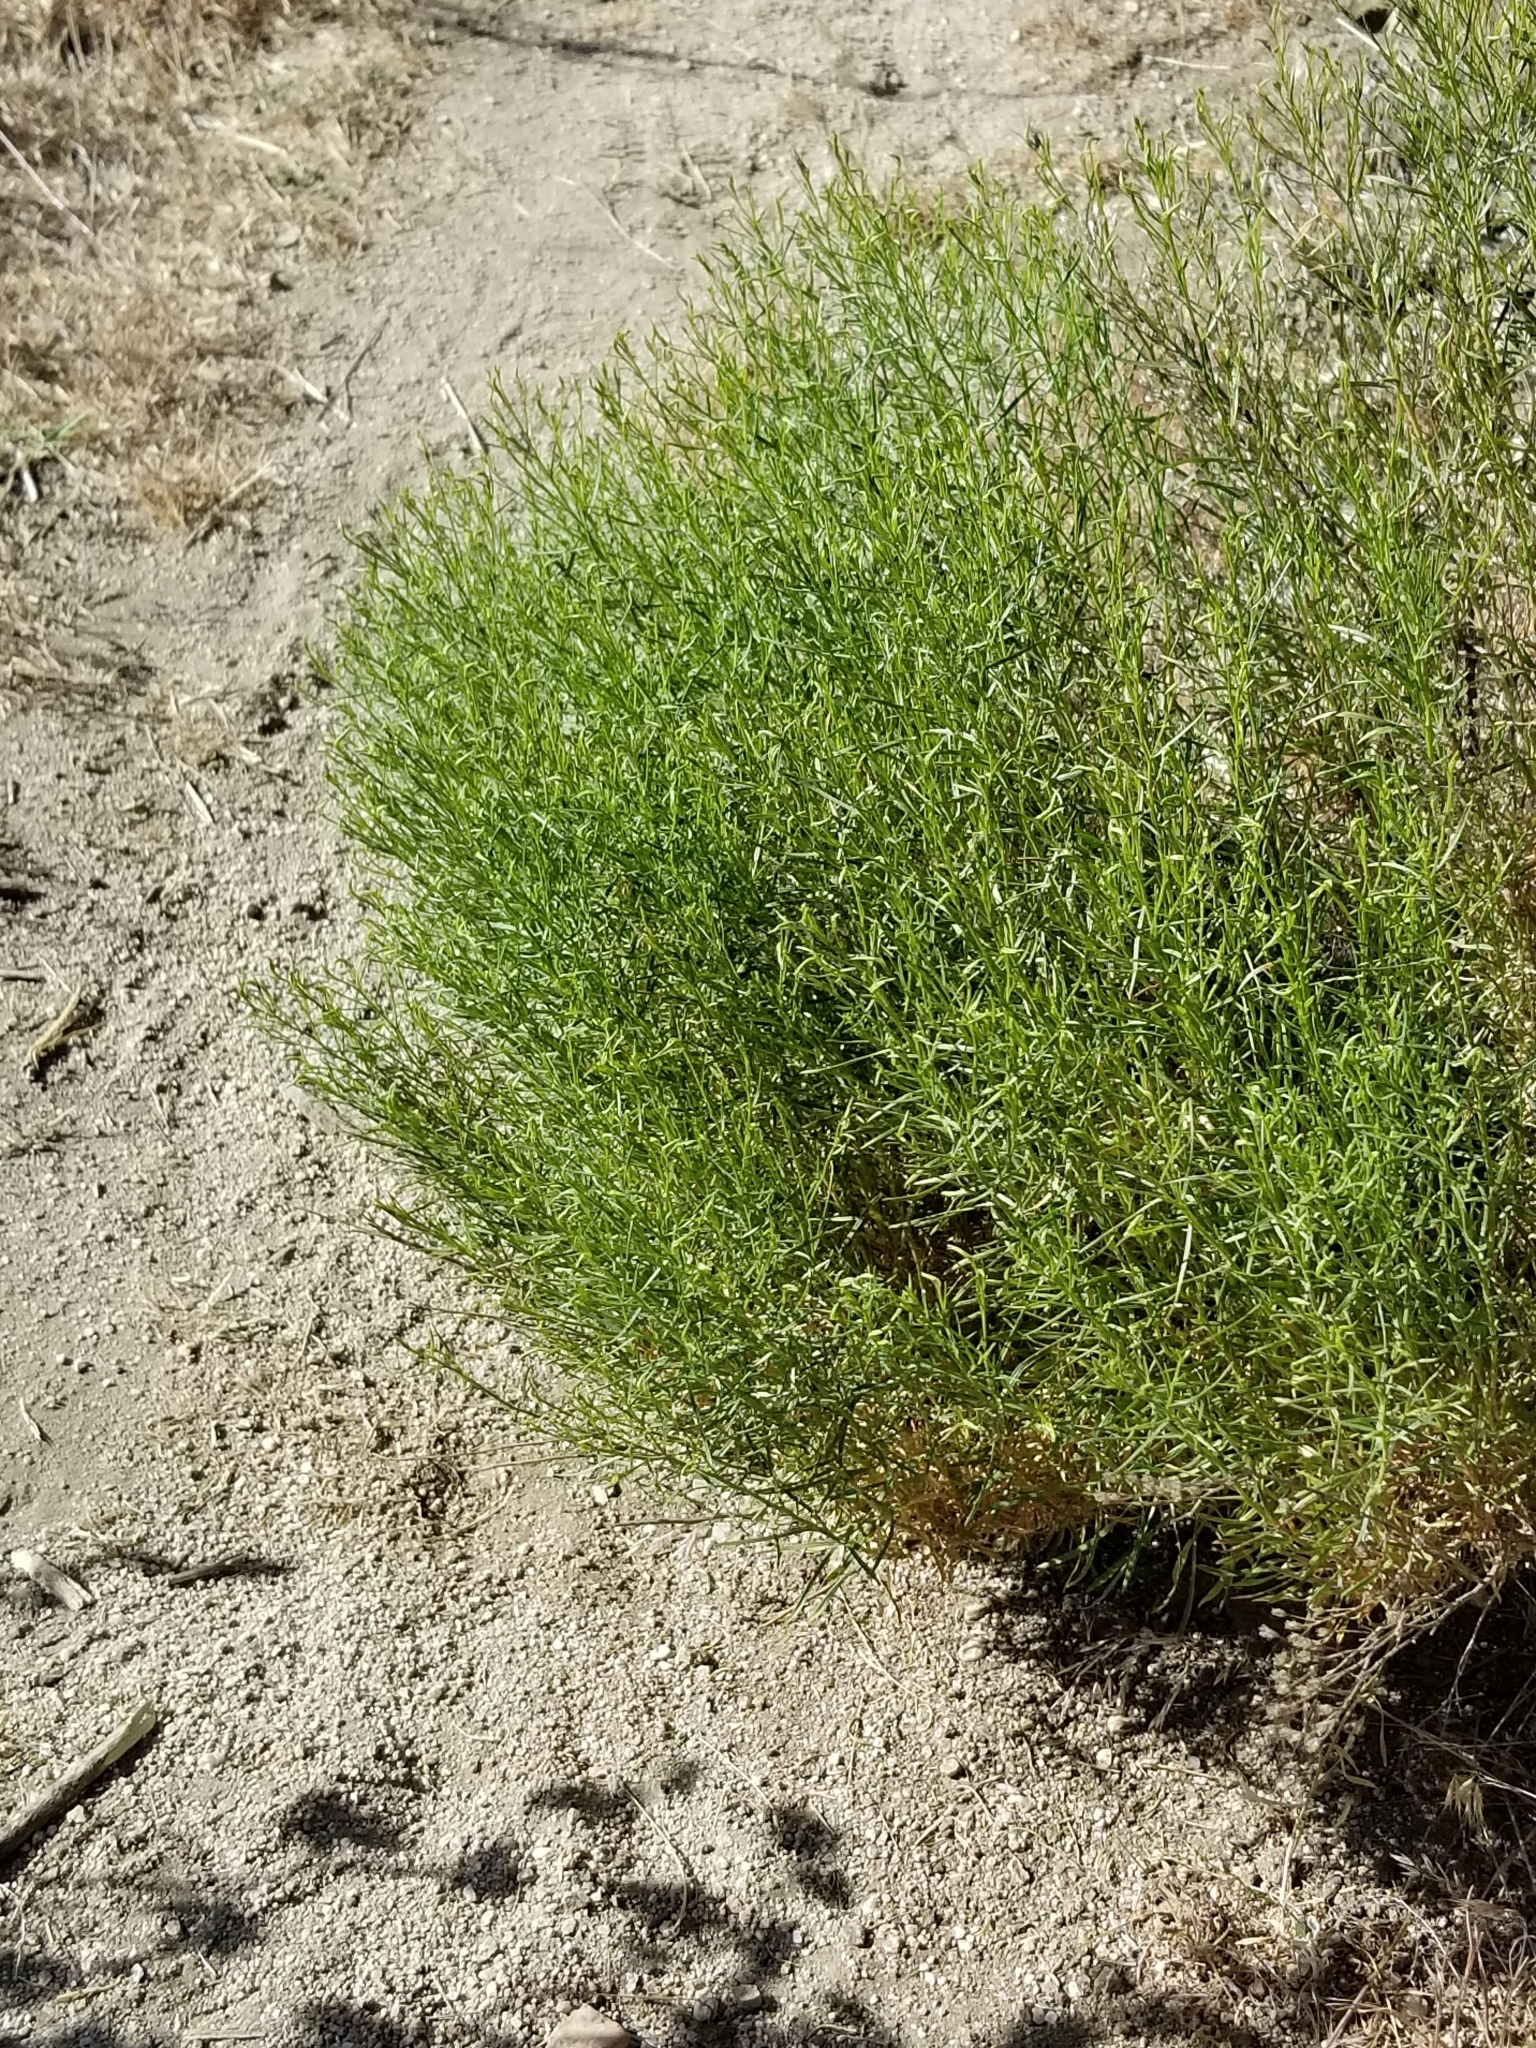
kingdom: Plantae
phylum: Tracheophyta
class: Magnoliopsida
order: Rosales
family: Rosaceae
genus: Adenostoma
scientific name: Adenostoma sparsifolium
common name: Red shank
